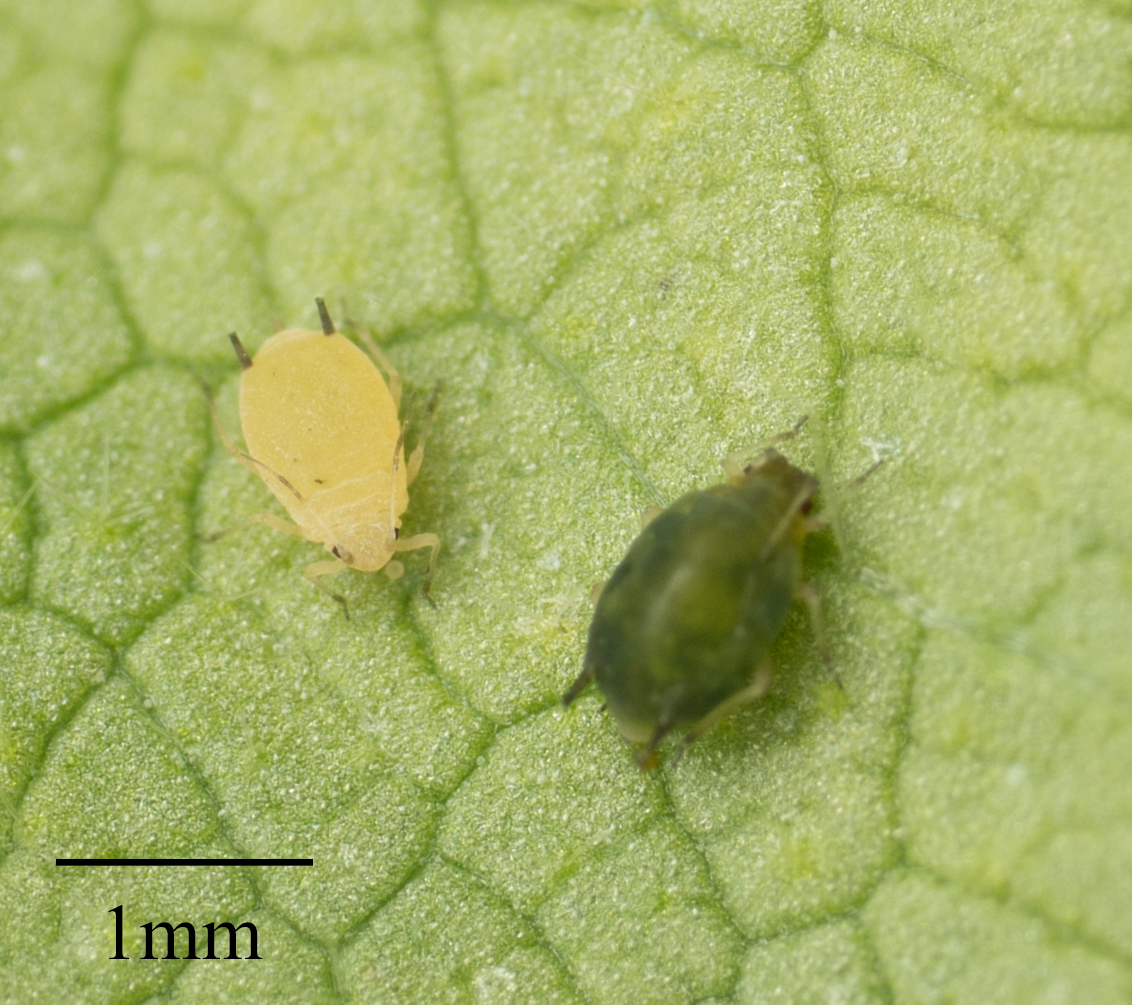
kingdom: Animalia
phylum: Arthropoda
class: Insecta
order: Hemiptera
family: Aphididae
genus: Aphis
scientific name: Aphis gossypii
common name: Melon aphid
